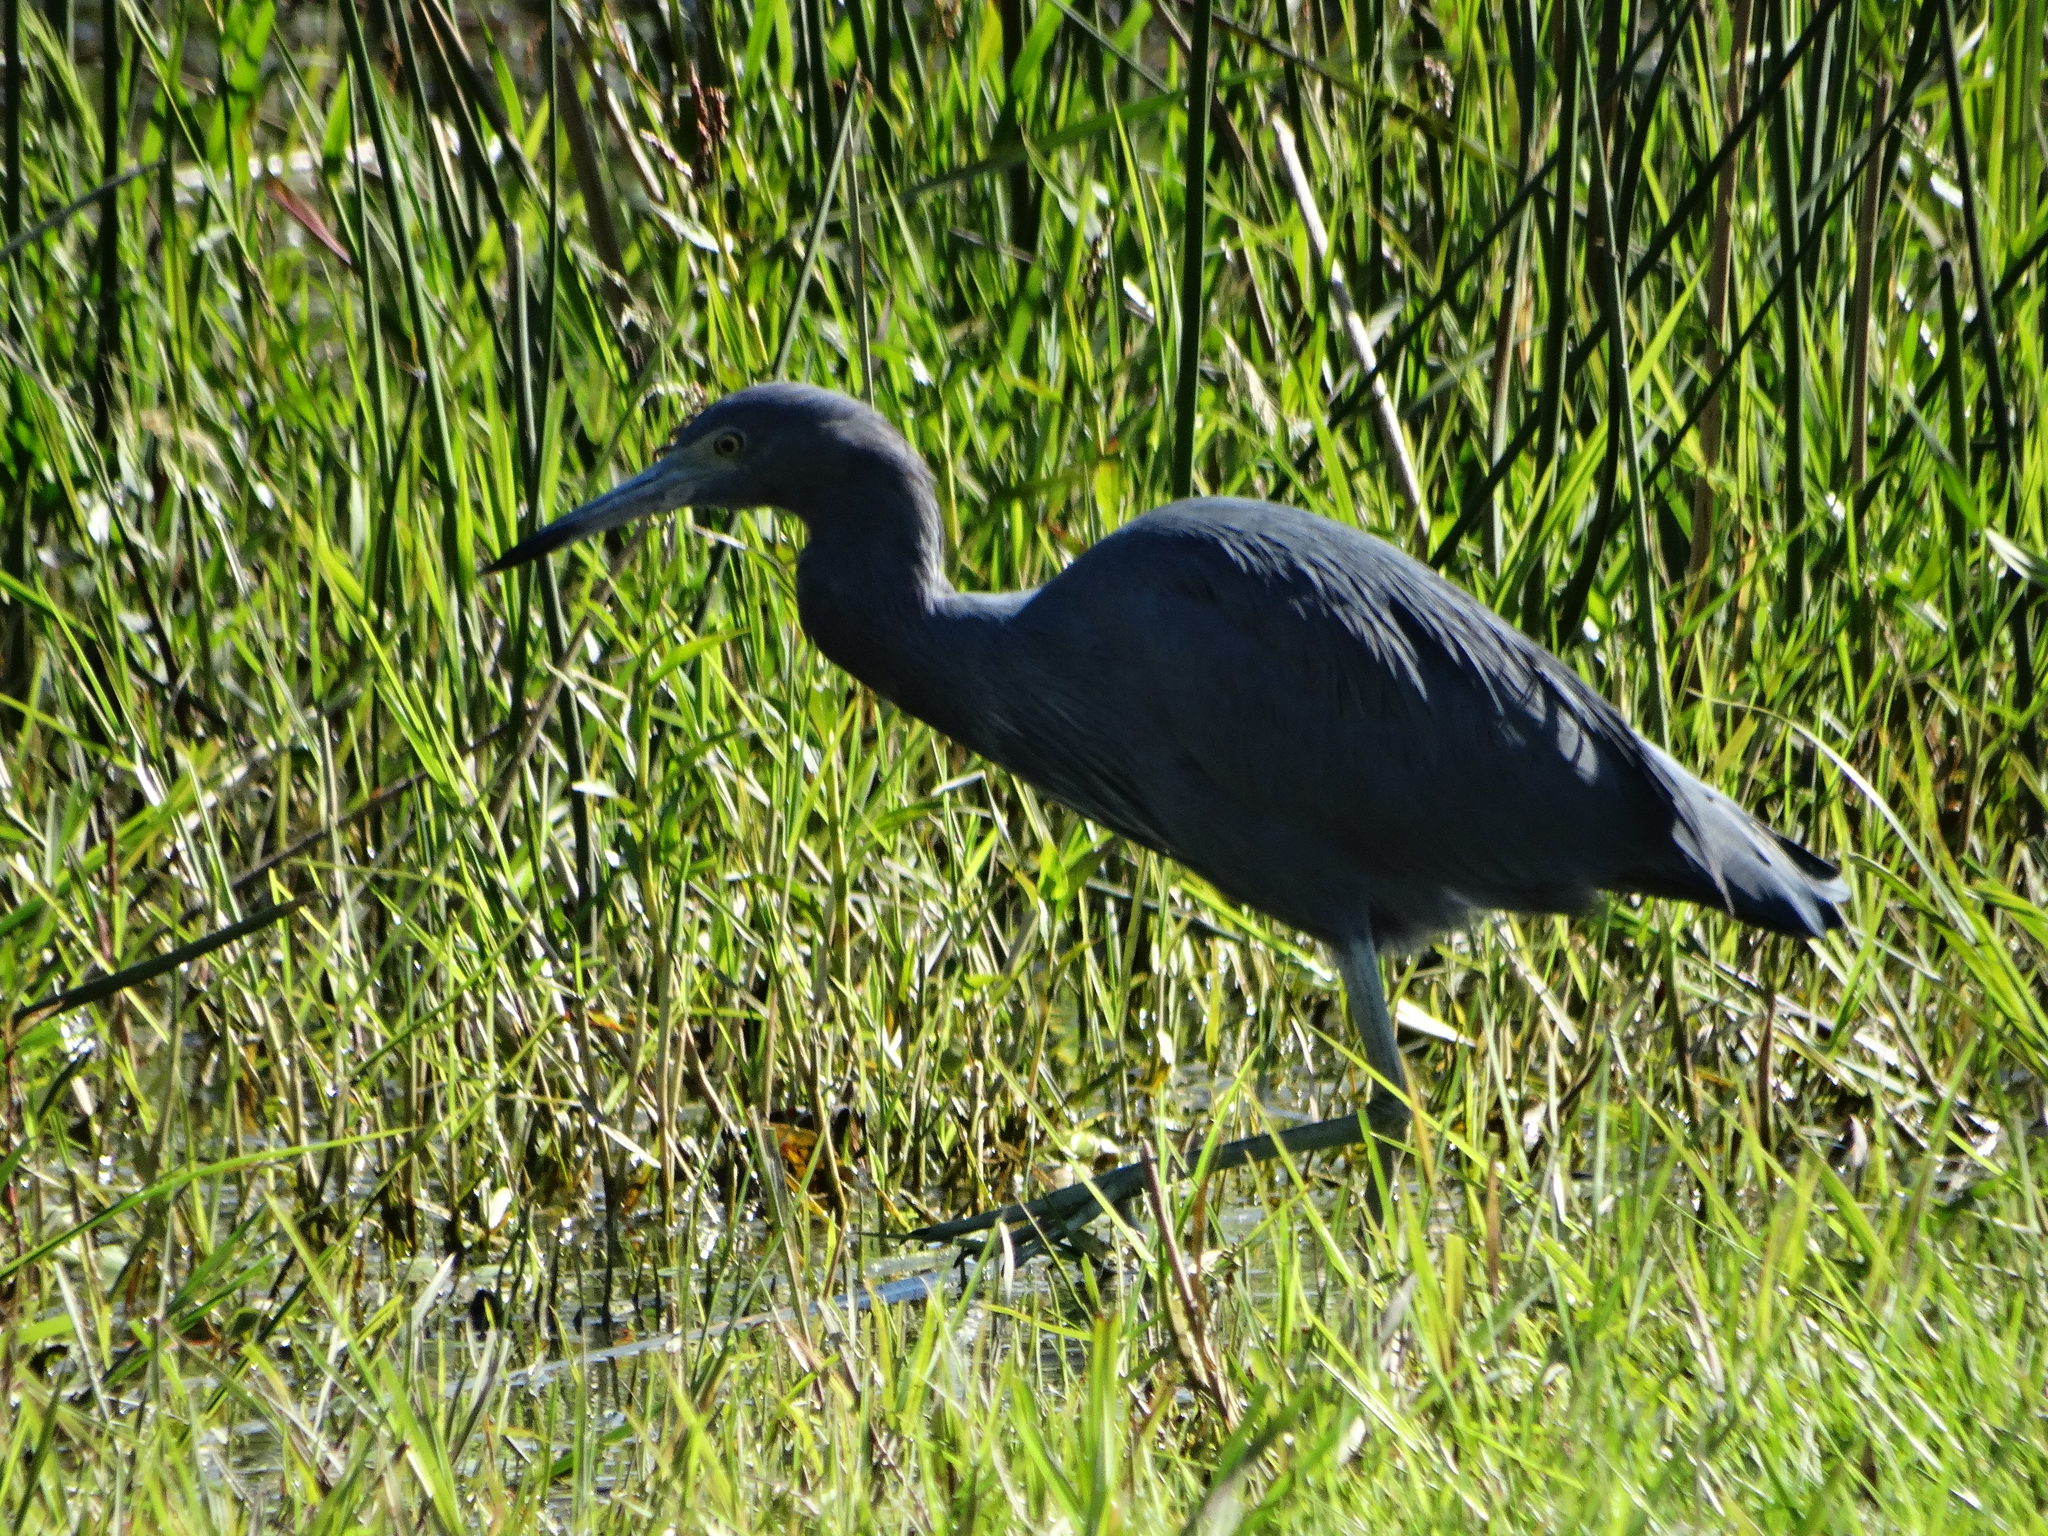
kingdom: Animalia
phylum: Chordata
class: Aves
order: Pelecaniformes
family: Ardeidae
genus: Egretta
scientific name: Egretta caerulea
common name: Little blue heron
